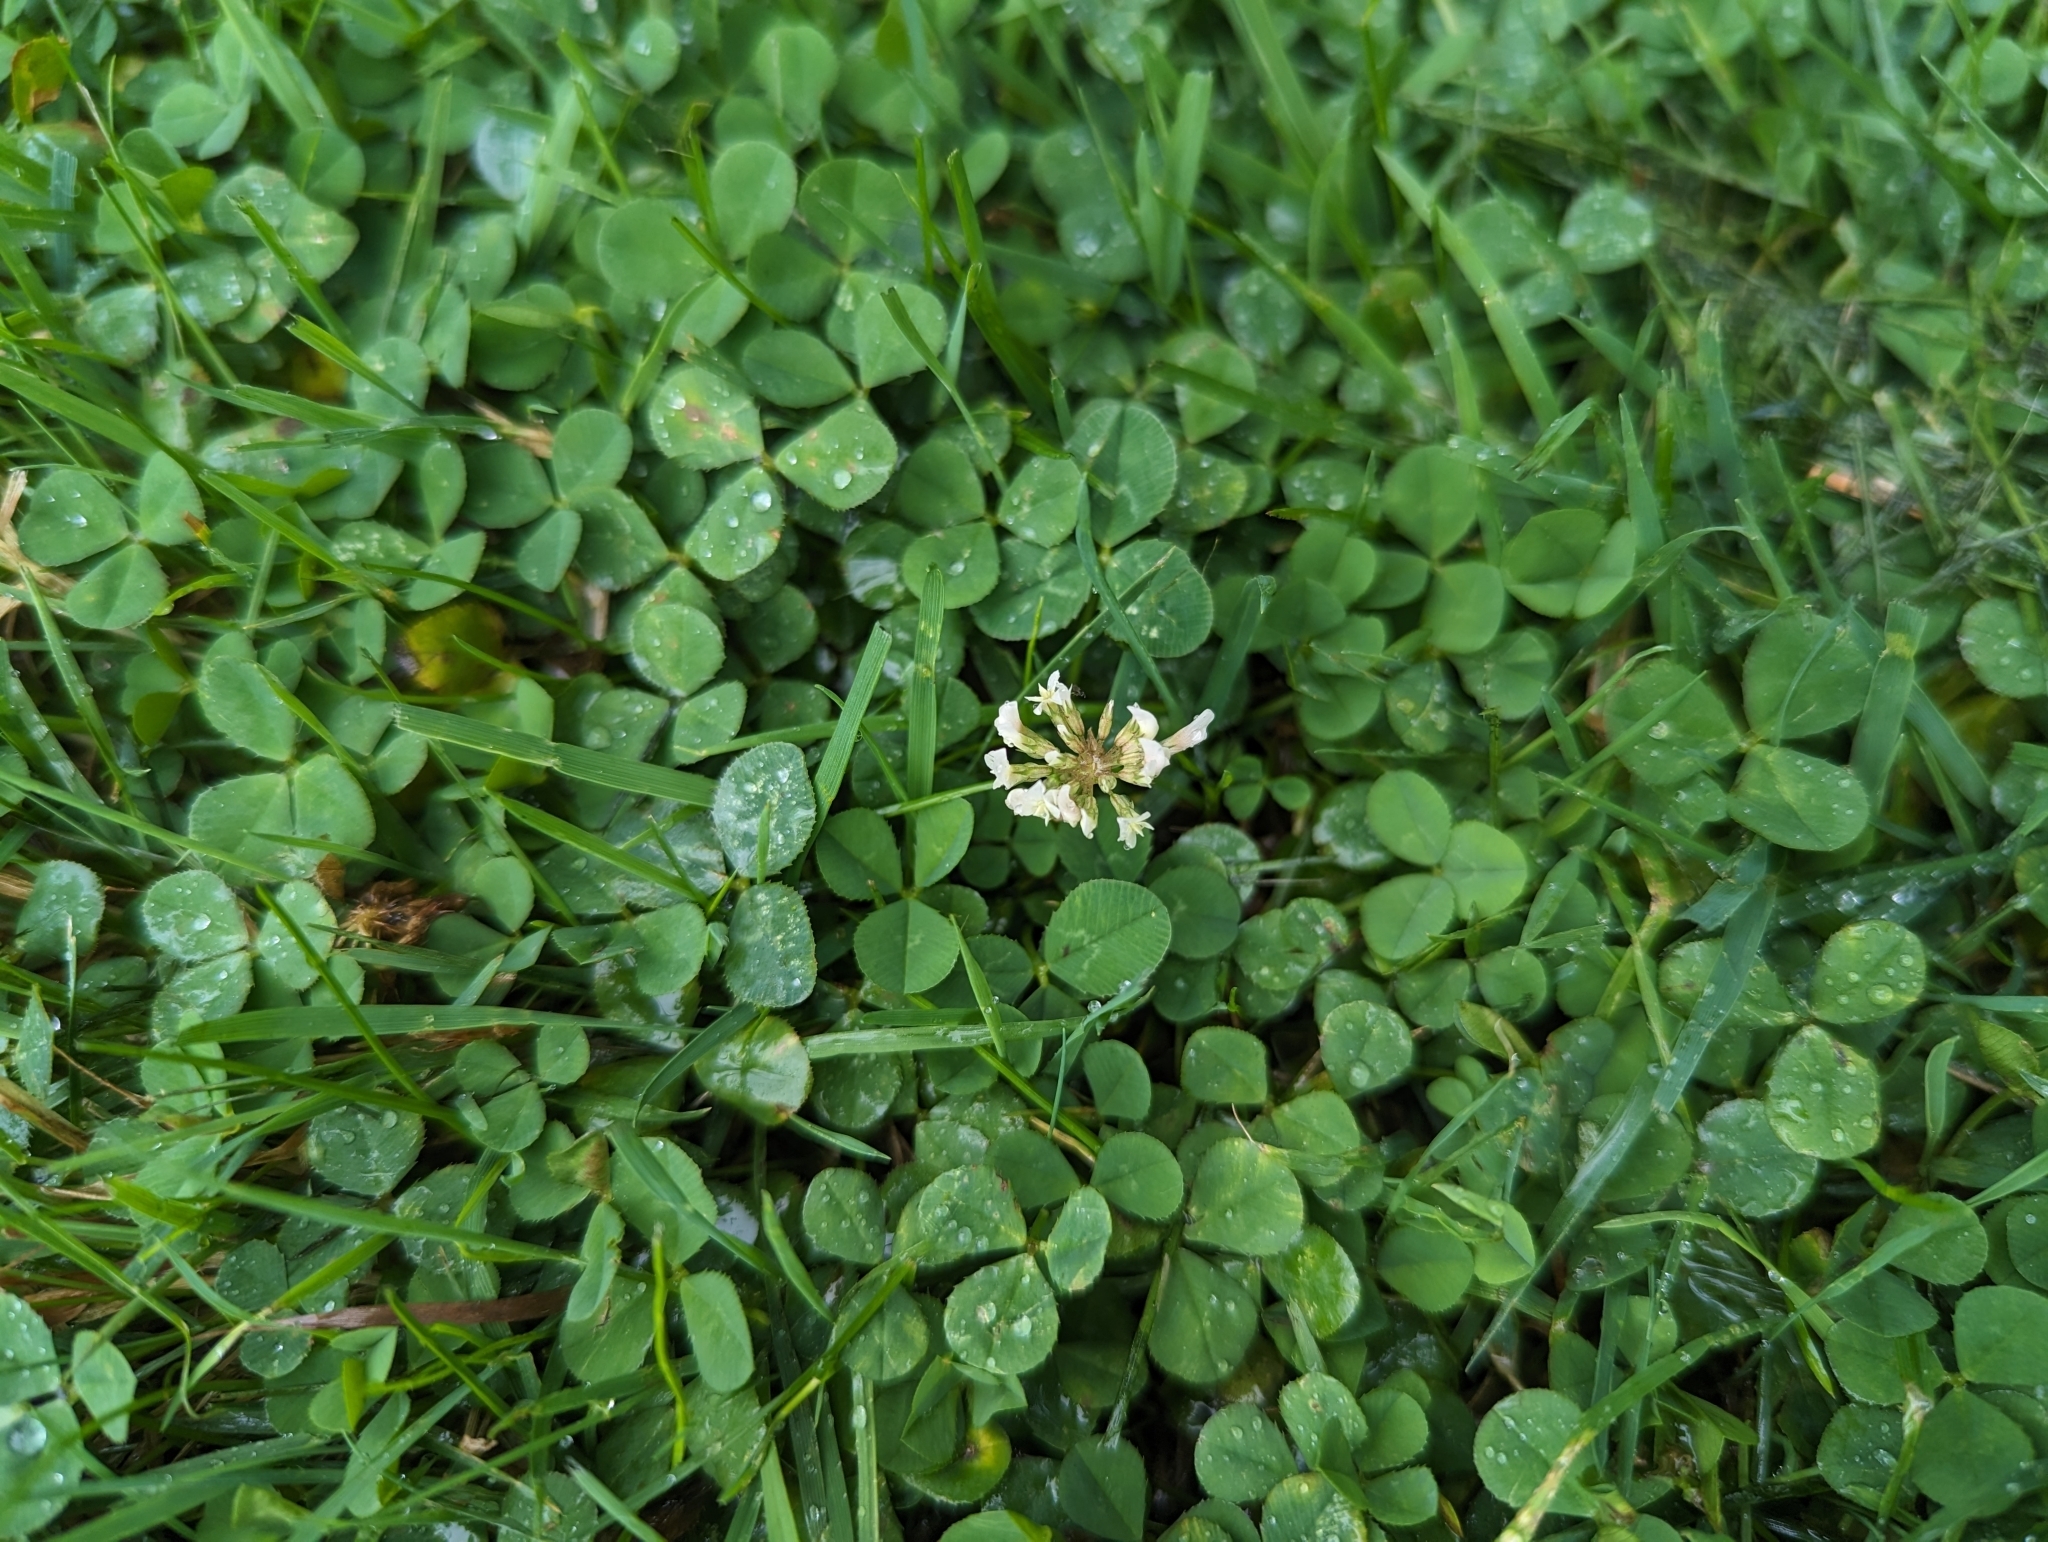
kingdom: Plantae
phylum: Tracheophyta
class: Magnoliopsida
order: Fabales
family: Fabaceae
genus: Trifolium
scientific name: Trifolium repens
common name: White clover
